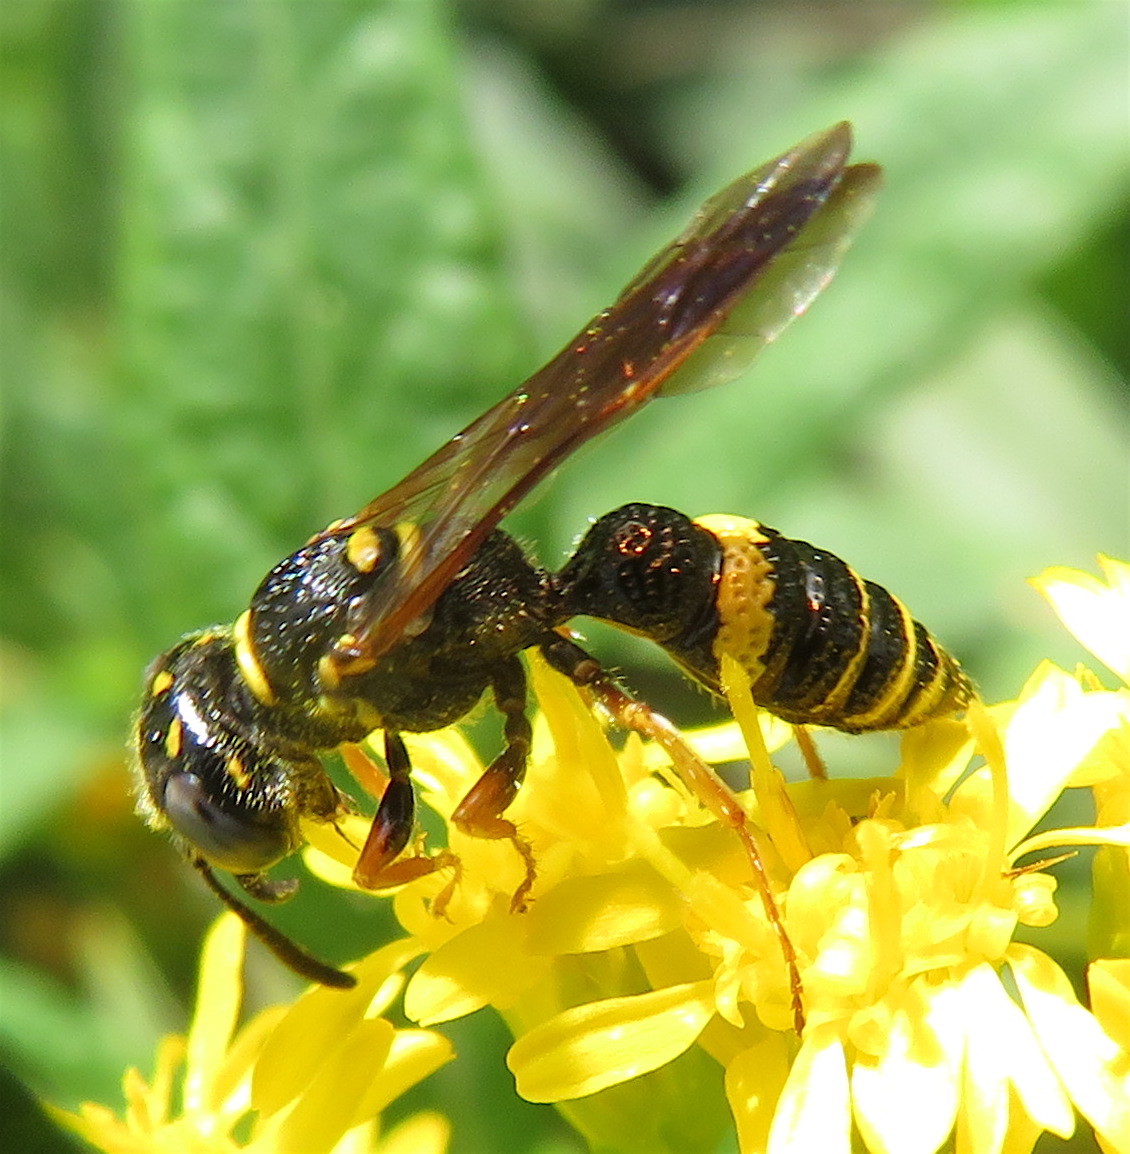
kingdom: Animalia
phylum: Arthropoda
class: Insecta
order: Hymenoptera
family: Crabronidae
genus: Philanthus
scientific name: Philanthus gibbosus
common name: Humped beewolf
